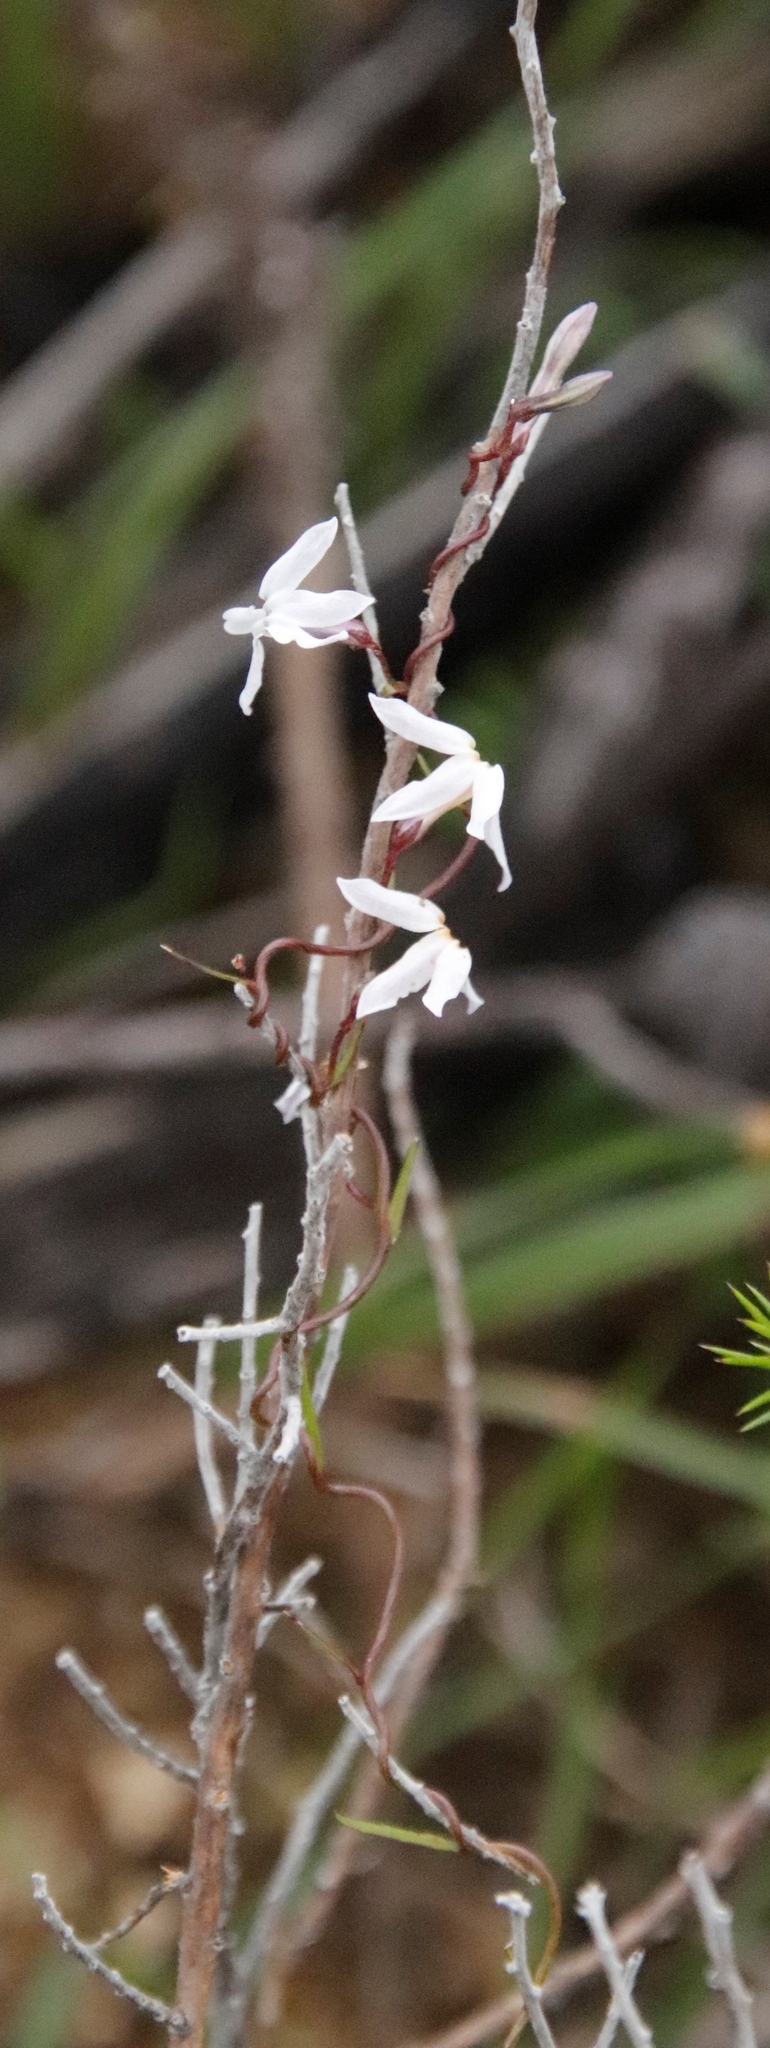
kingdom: Plantae
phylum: Tracheophyta
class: Magnoliopsida
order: Asterales
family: Campanulaceae
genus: Cyphia
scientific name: Cyphia volubilis
